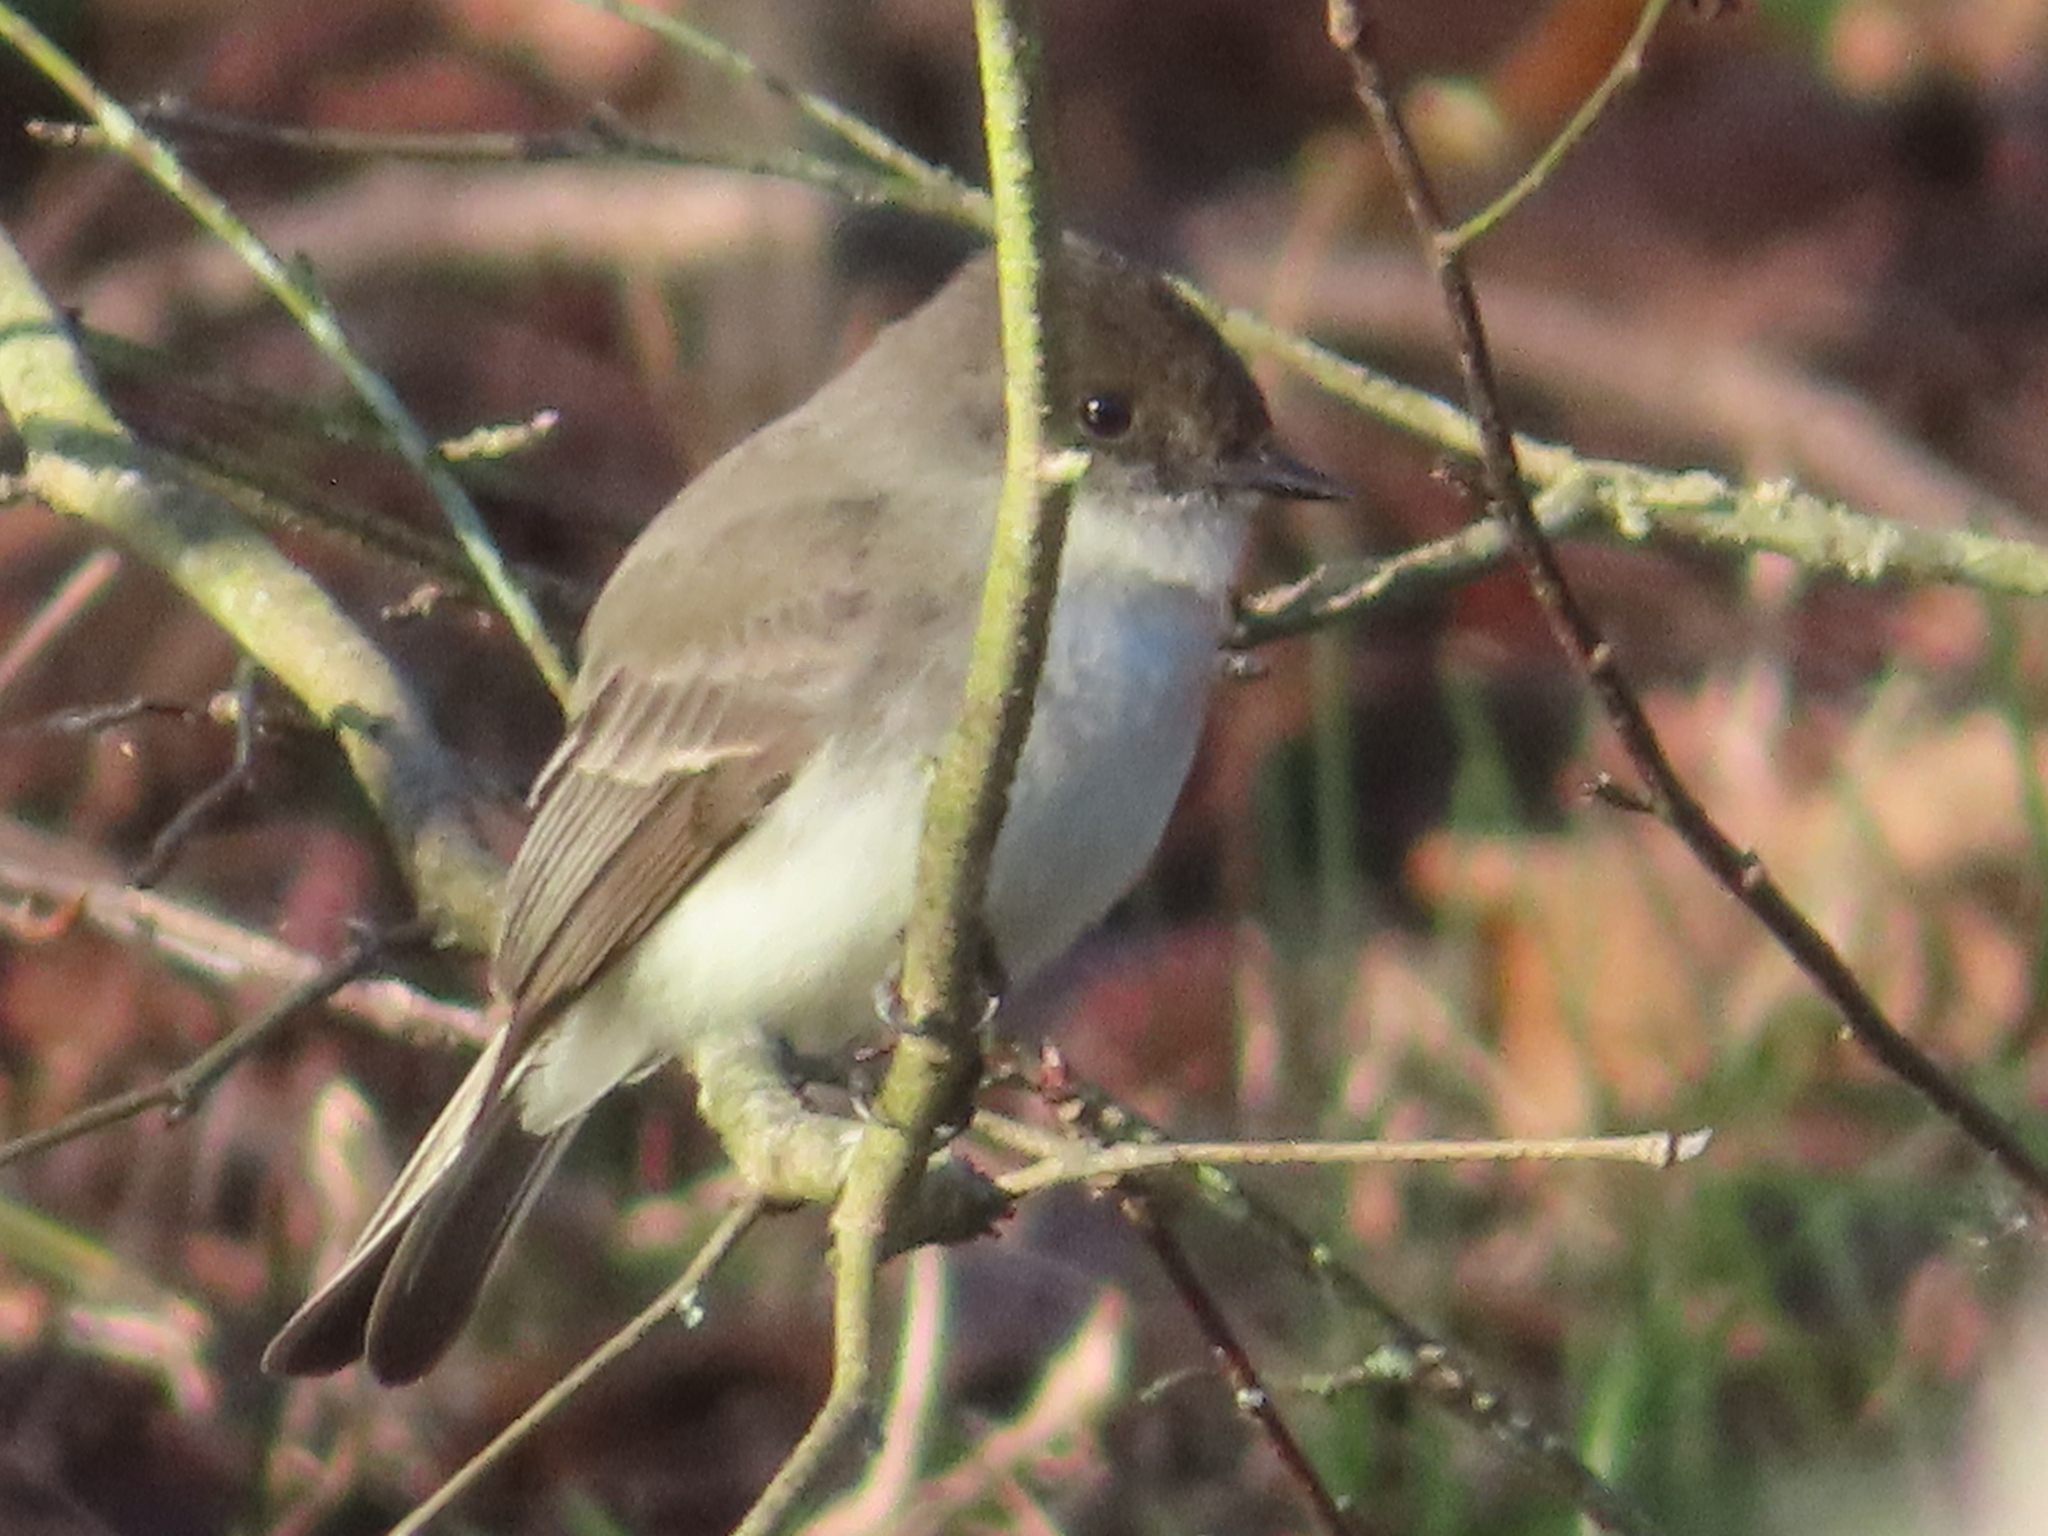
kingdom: Animalia
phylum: Chordata
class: Aves
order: Passeriformes
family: Tyrannidae
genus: Sayornis
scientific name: Sayornis phoebe
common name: Eastern phoebe
